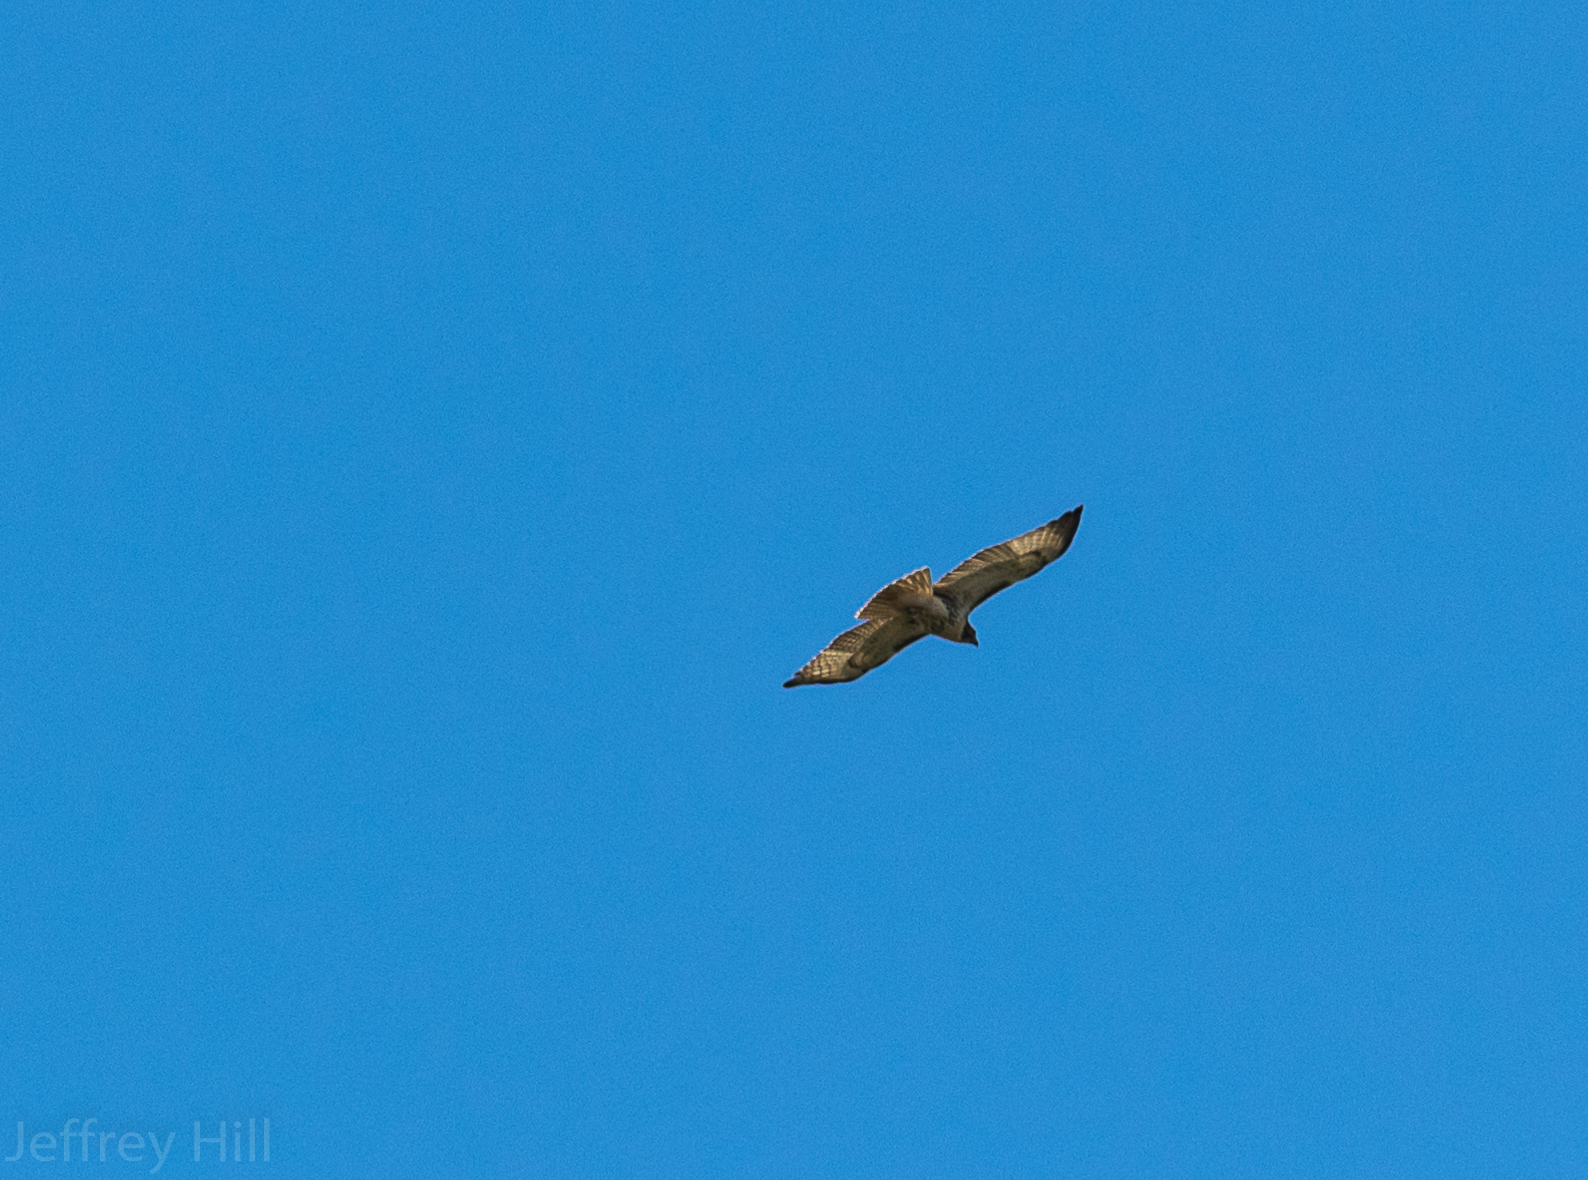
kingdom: Animalia
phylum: Chordata
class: Aves
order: Accipitriformes
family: Accipitridae
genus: Buteo
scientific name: Buteo jamaicensis
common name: Red-tailed hawk
